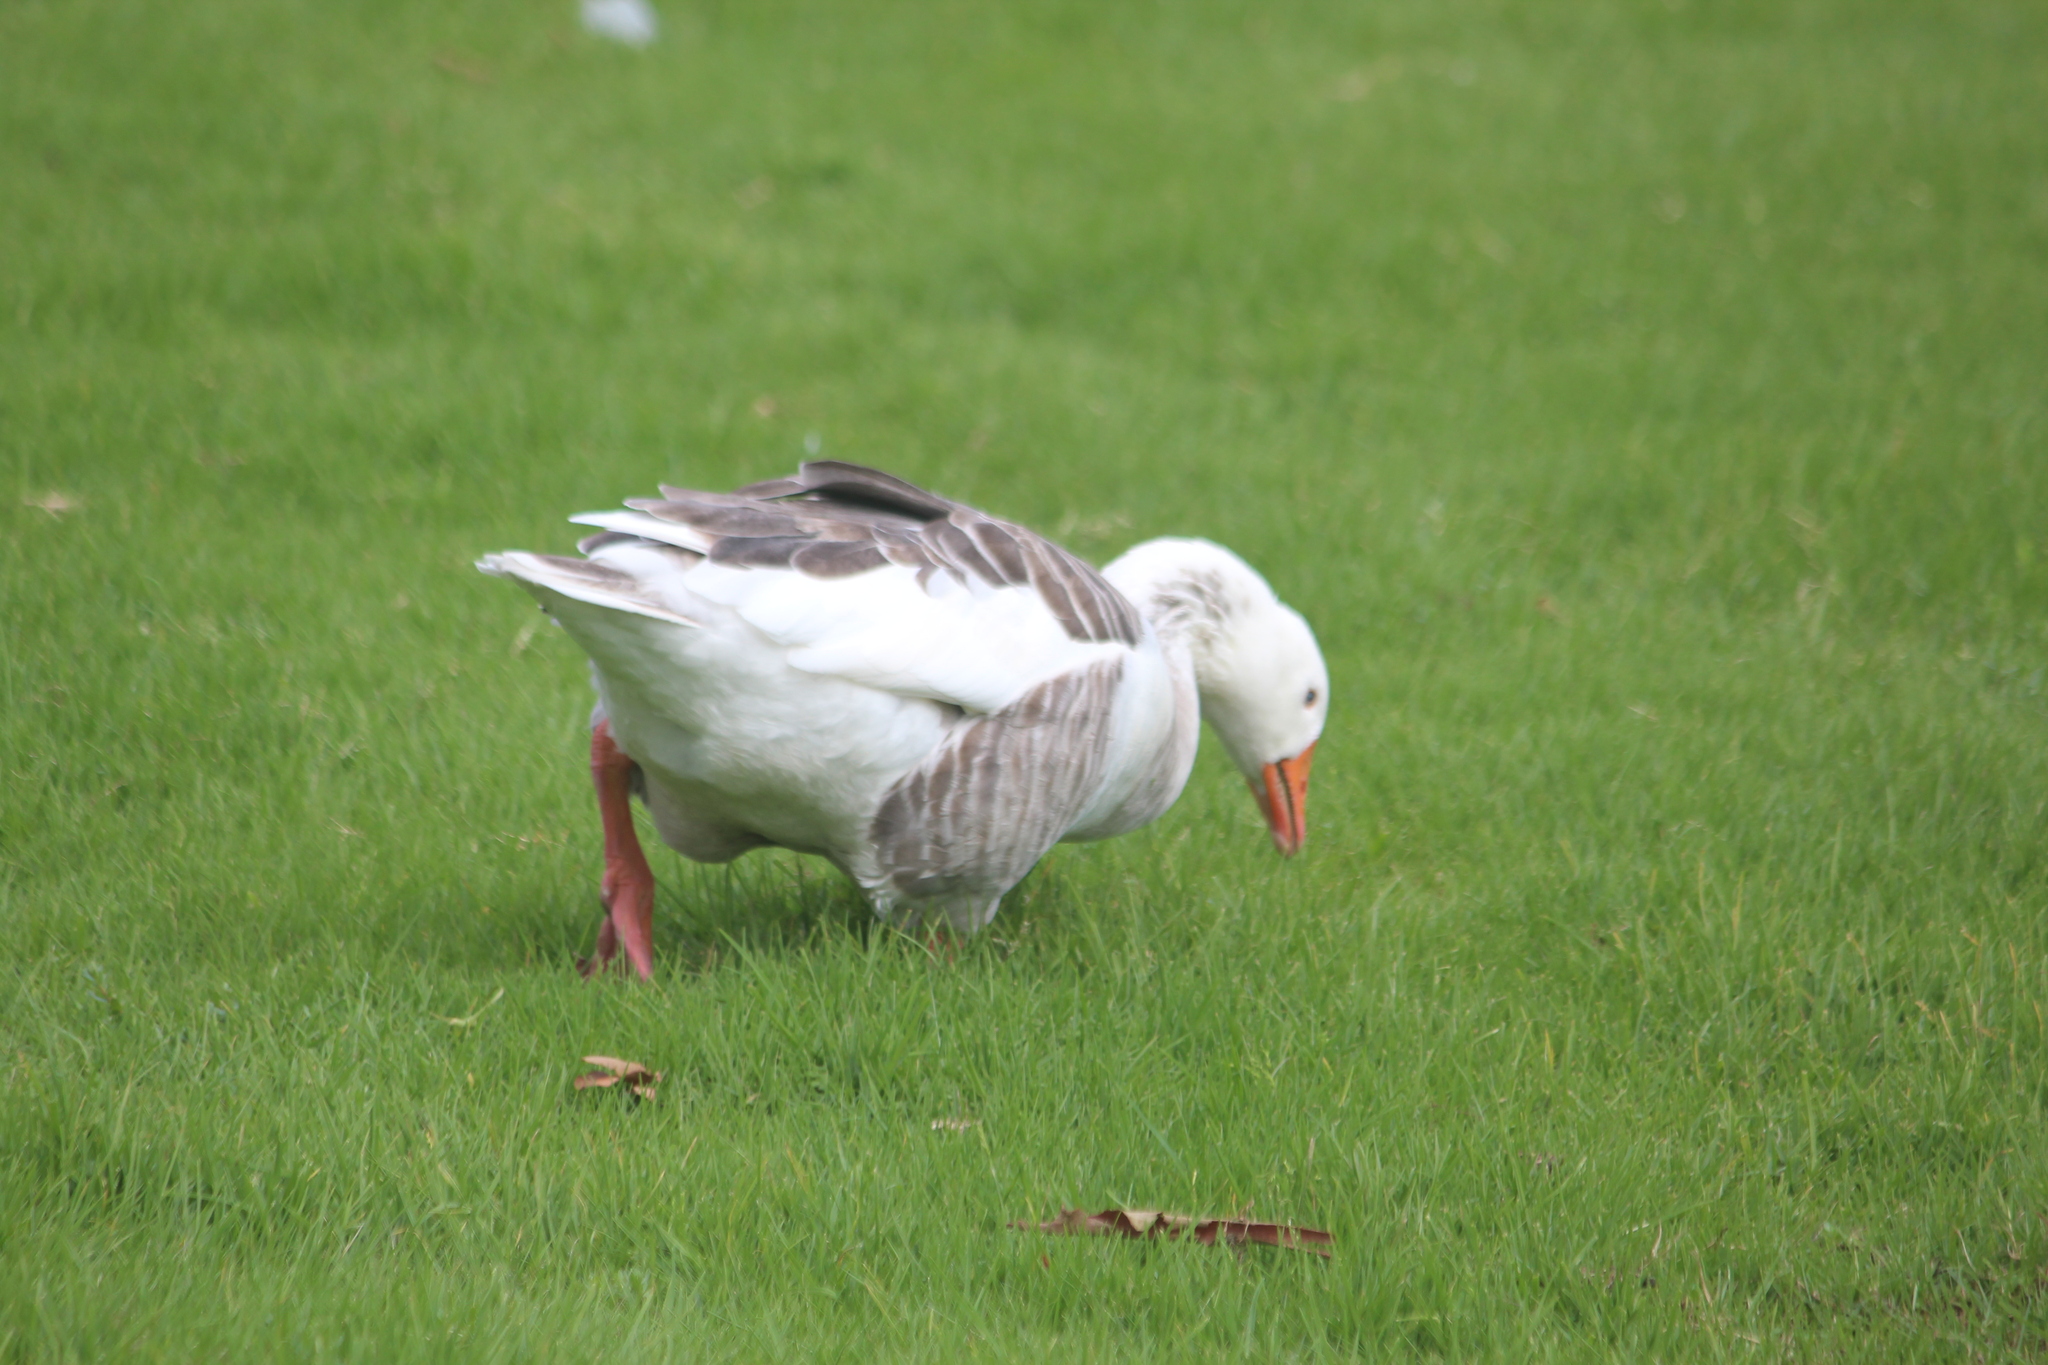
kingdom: Animalia
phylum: Chordata
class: Aves
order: Anseriformes
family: Anatidae
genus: Anser
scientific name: Anser anser
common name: Greylag goose
